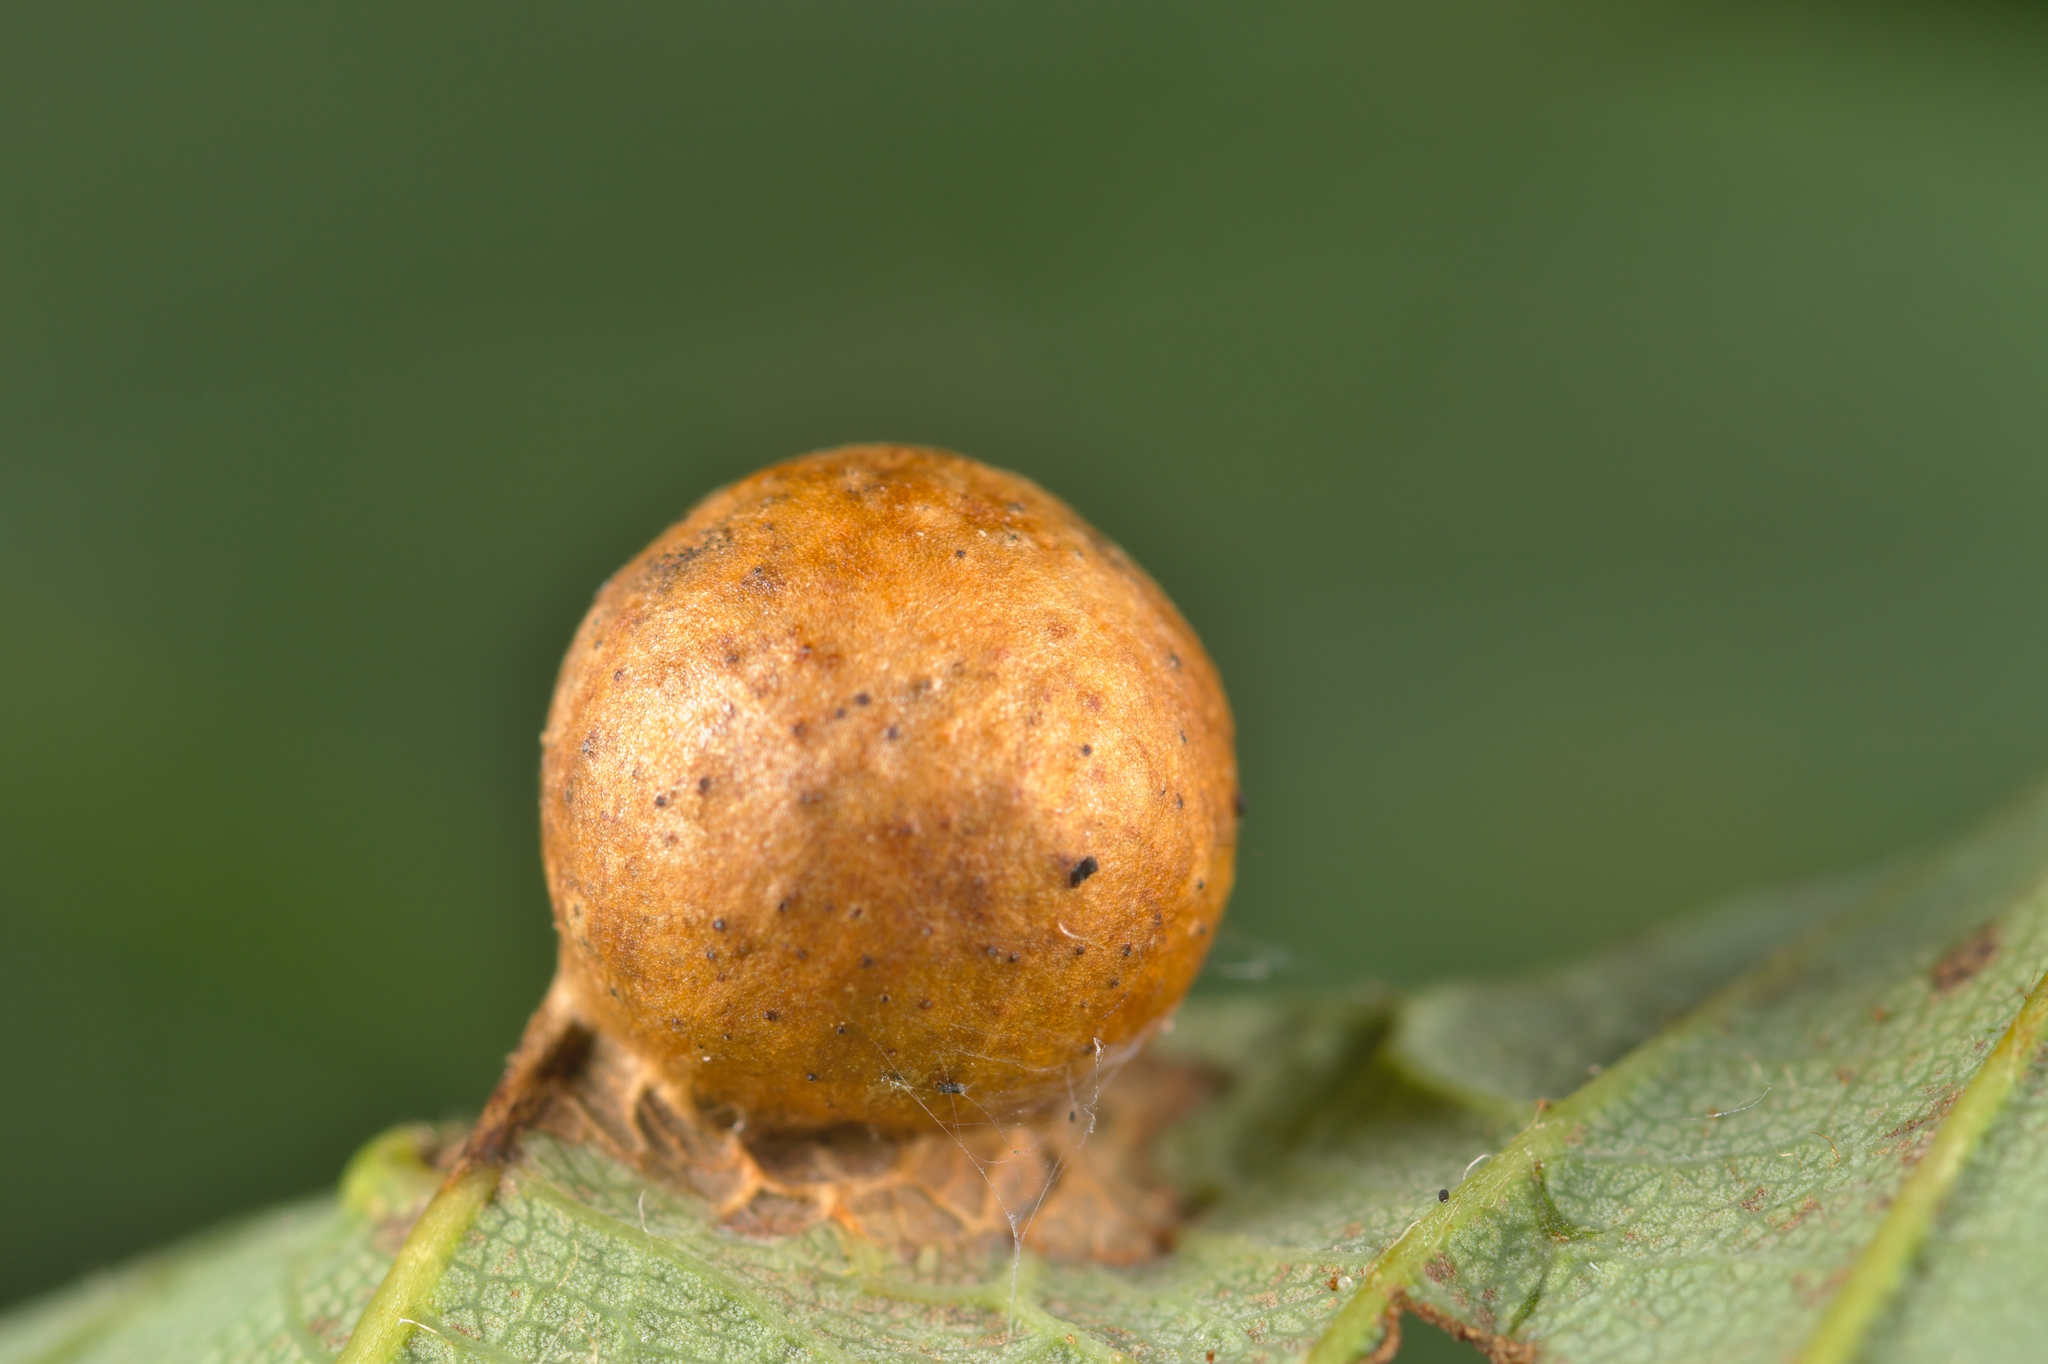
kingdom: Animalia
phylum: Arthropoda
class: Insecta
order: Hymenoptera
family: Cynipidae
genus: Pediaspis
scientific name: Pediaspis aceris
